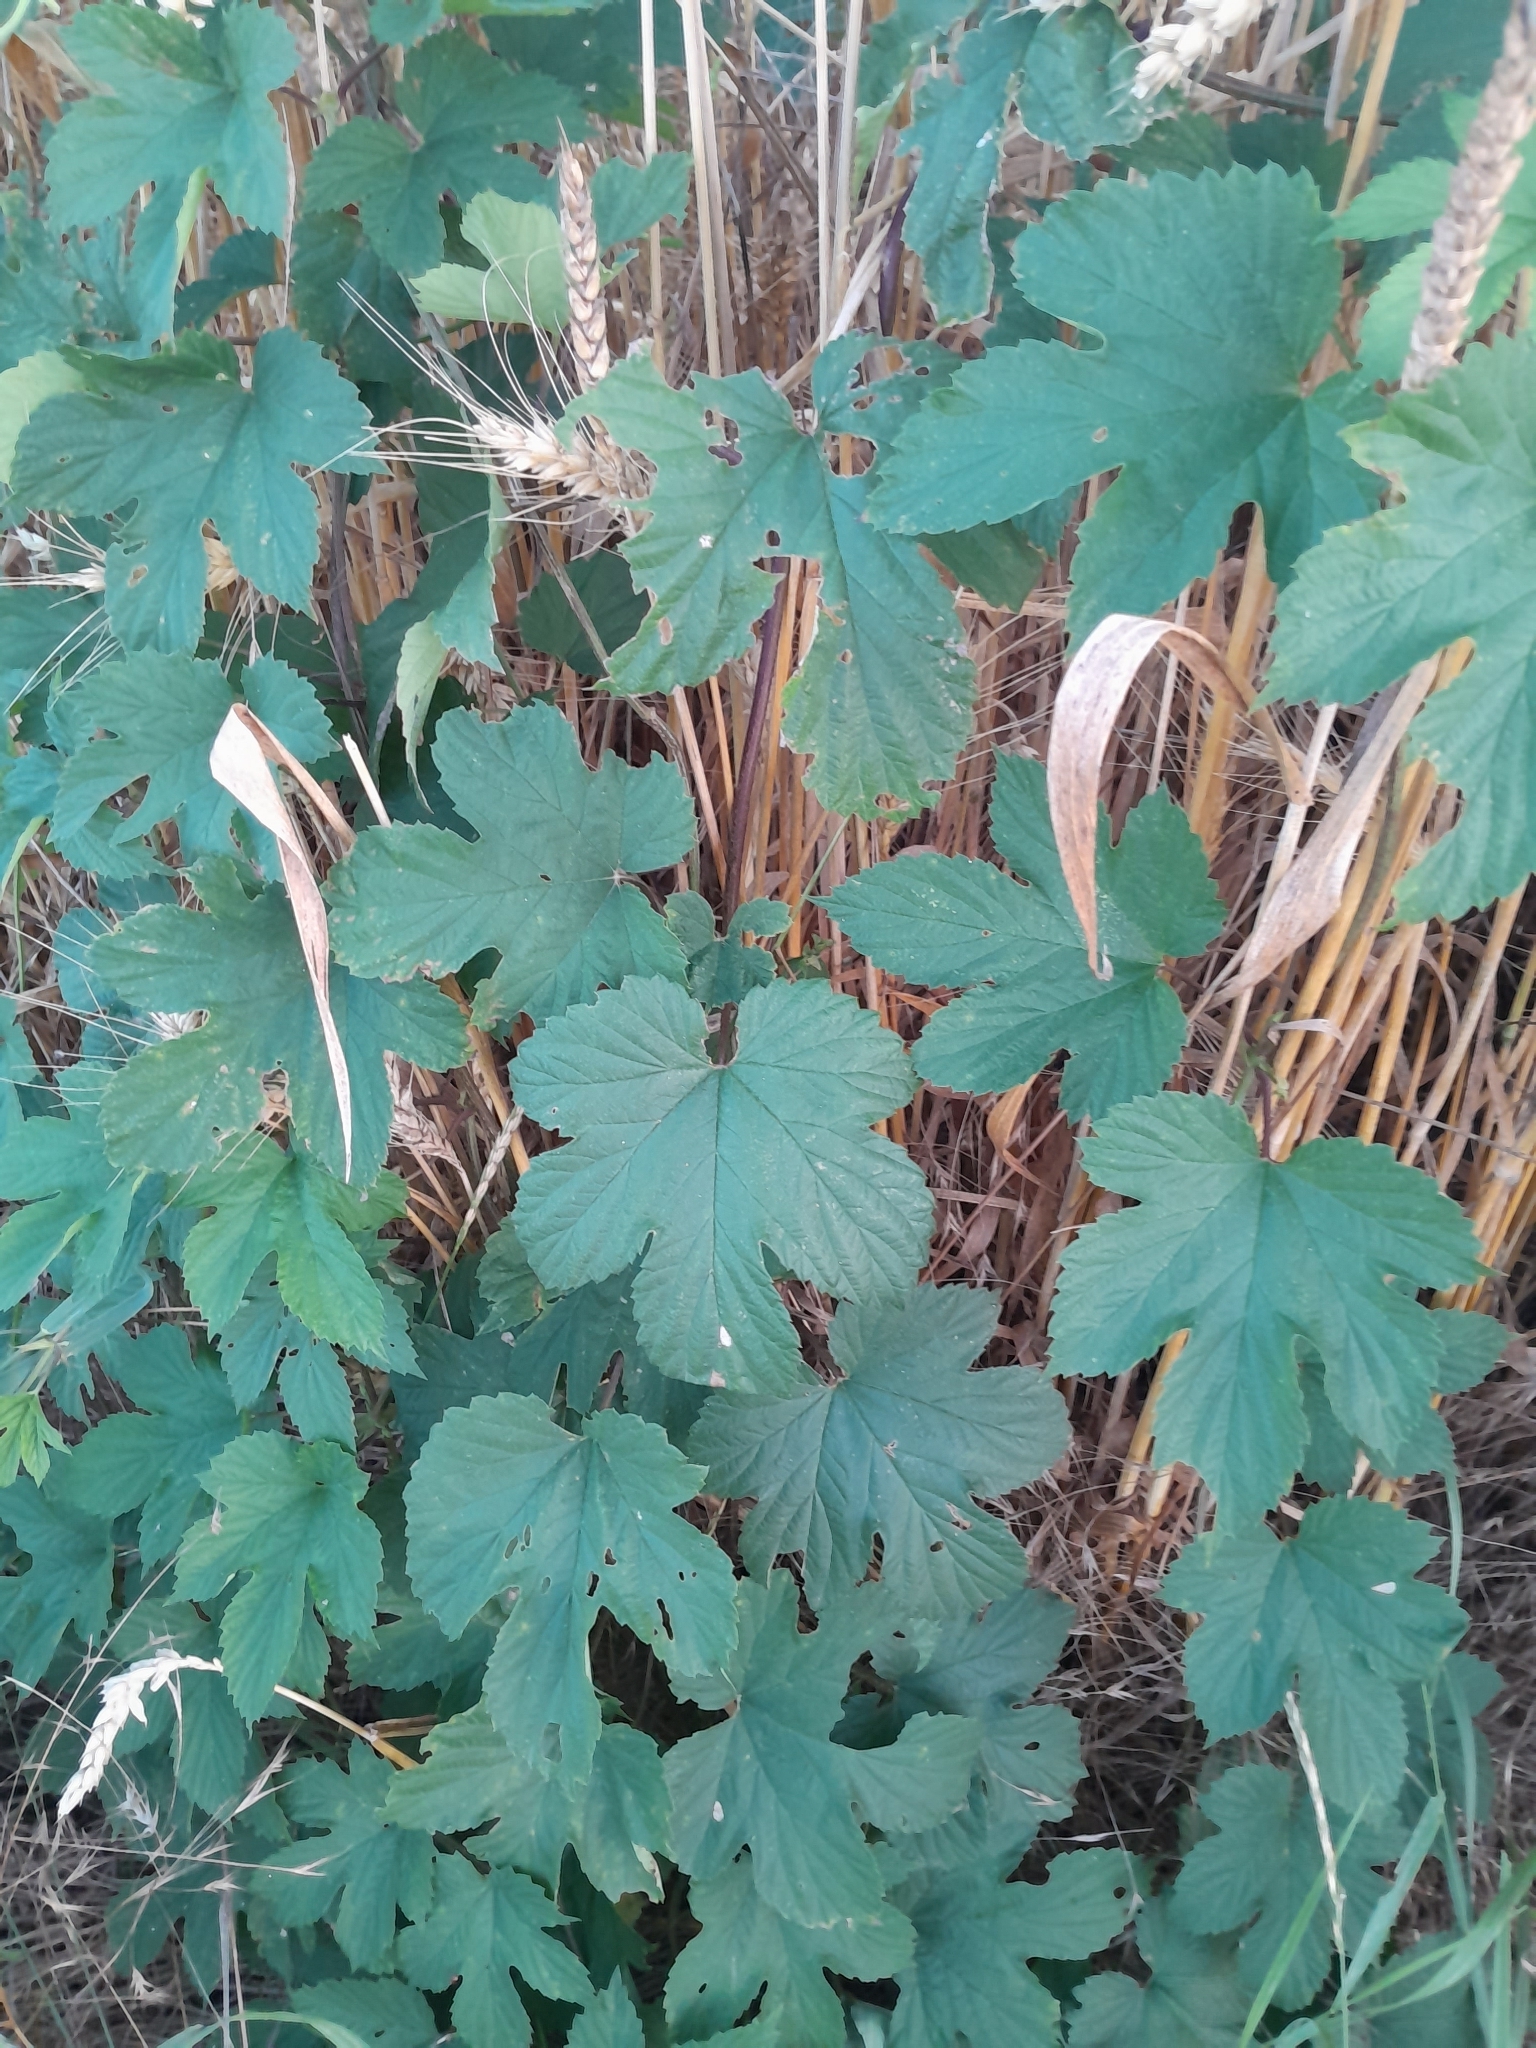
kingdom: Plantae
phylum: Tracheophyta
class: Magnoliopsida
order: Rosales
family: Cannabaceae
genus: Humulus
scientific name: Humulus lupulus
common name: Hop
